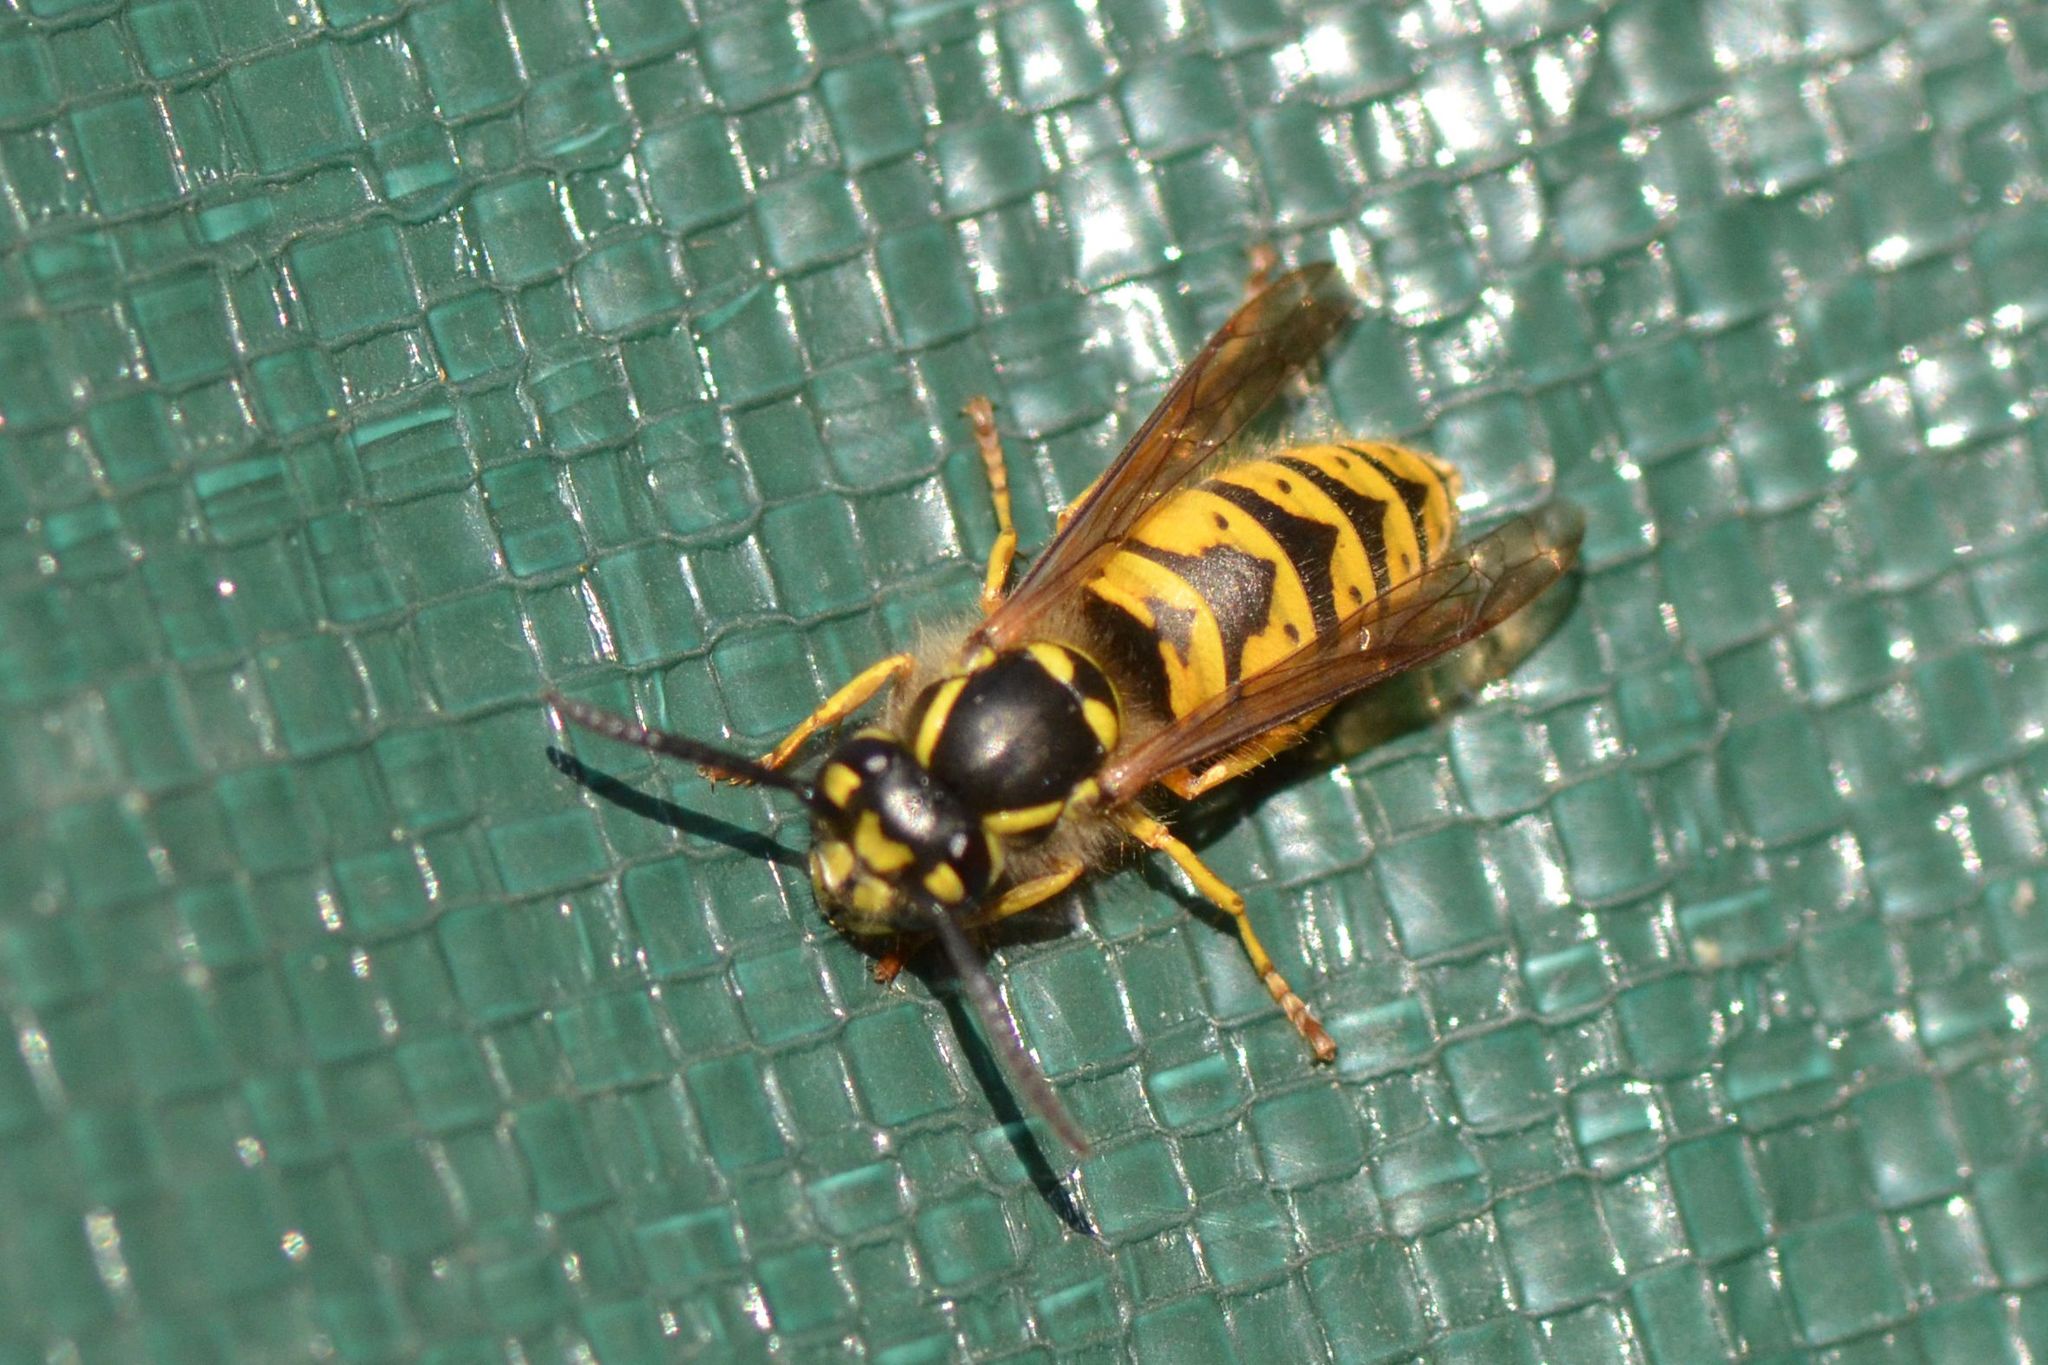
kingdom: Animalia
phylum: Arthropoda
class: Insecta
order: Hymenoptera
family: Vespidae
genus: Vespula
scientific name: Vespula vulgaris
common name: Common wasp
